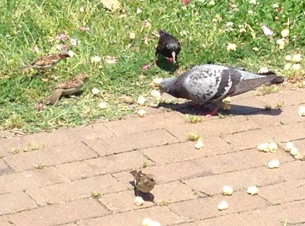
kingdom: Animalia
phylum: Chordata
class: Aves
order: Columbiformes
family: Columbidae
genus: Columba
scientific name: Columba livia
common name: Rock pigeon
